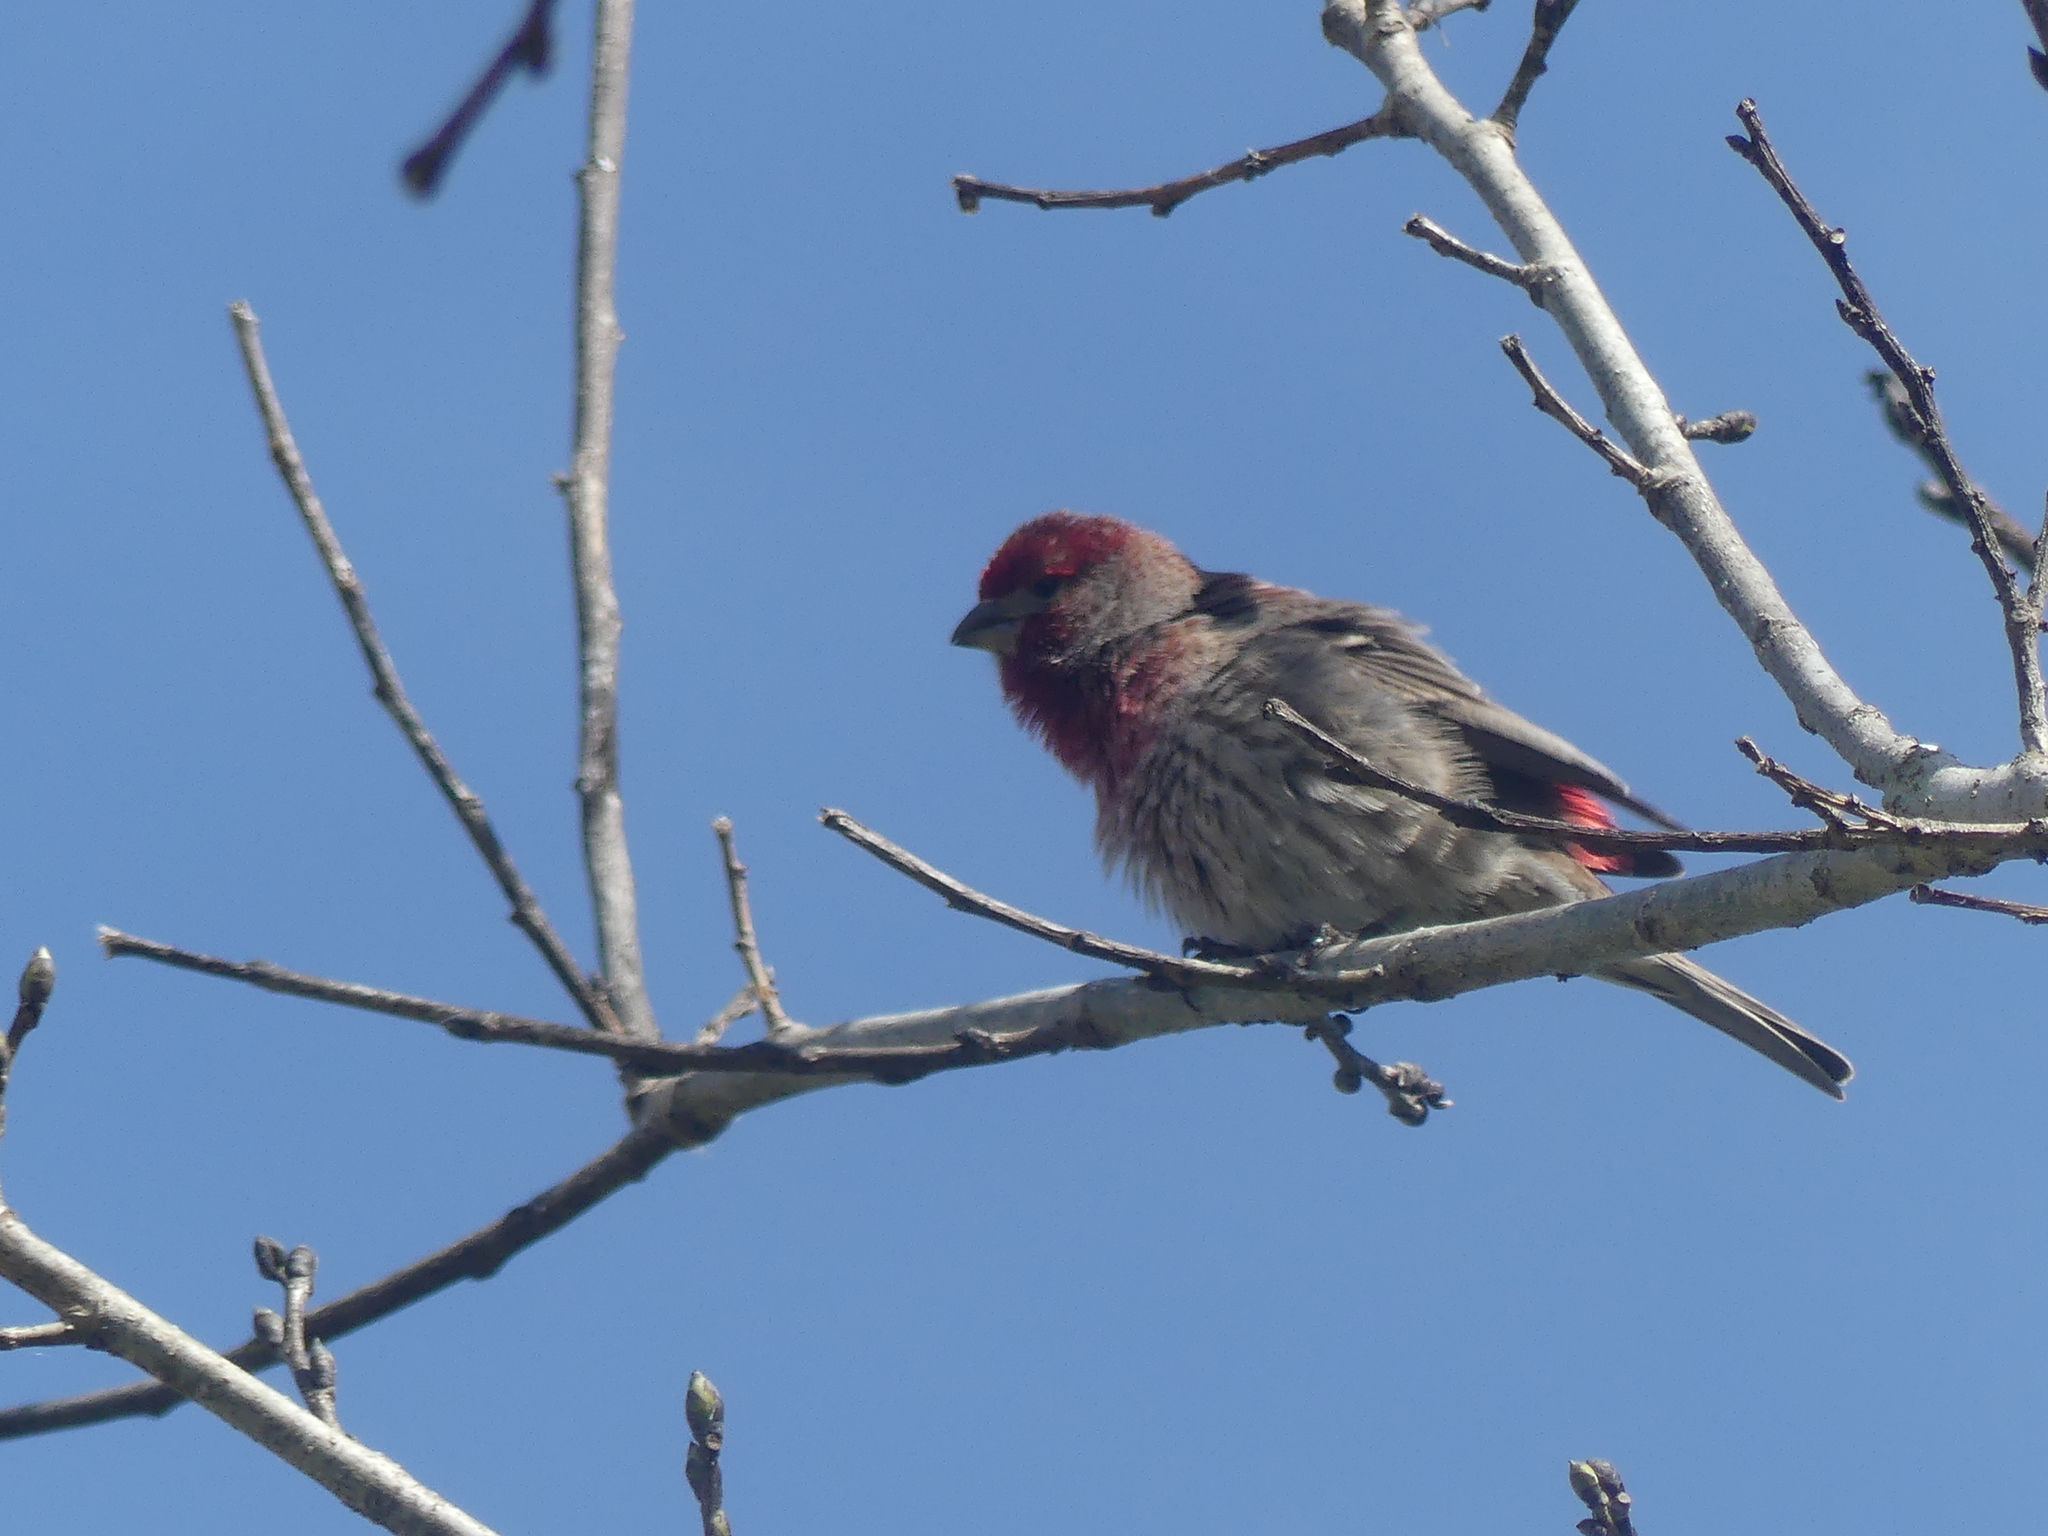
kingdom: Animalia
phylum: Chordata
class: Aves
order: Passeriformes
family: Fringillidae
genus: Haemorhous
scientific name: Haemorhous mexicanus
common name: House finch
